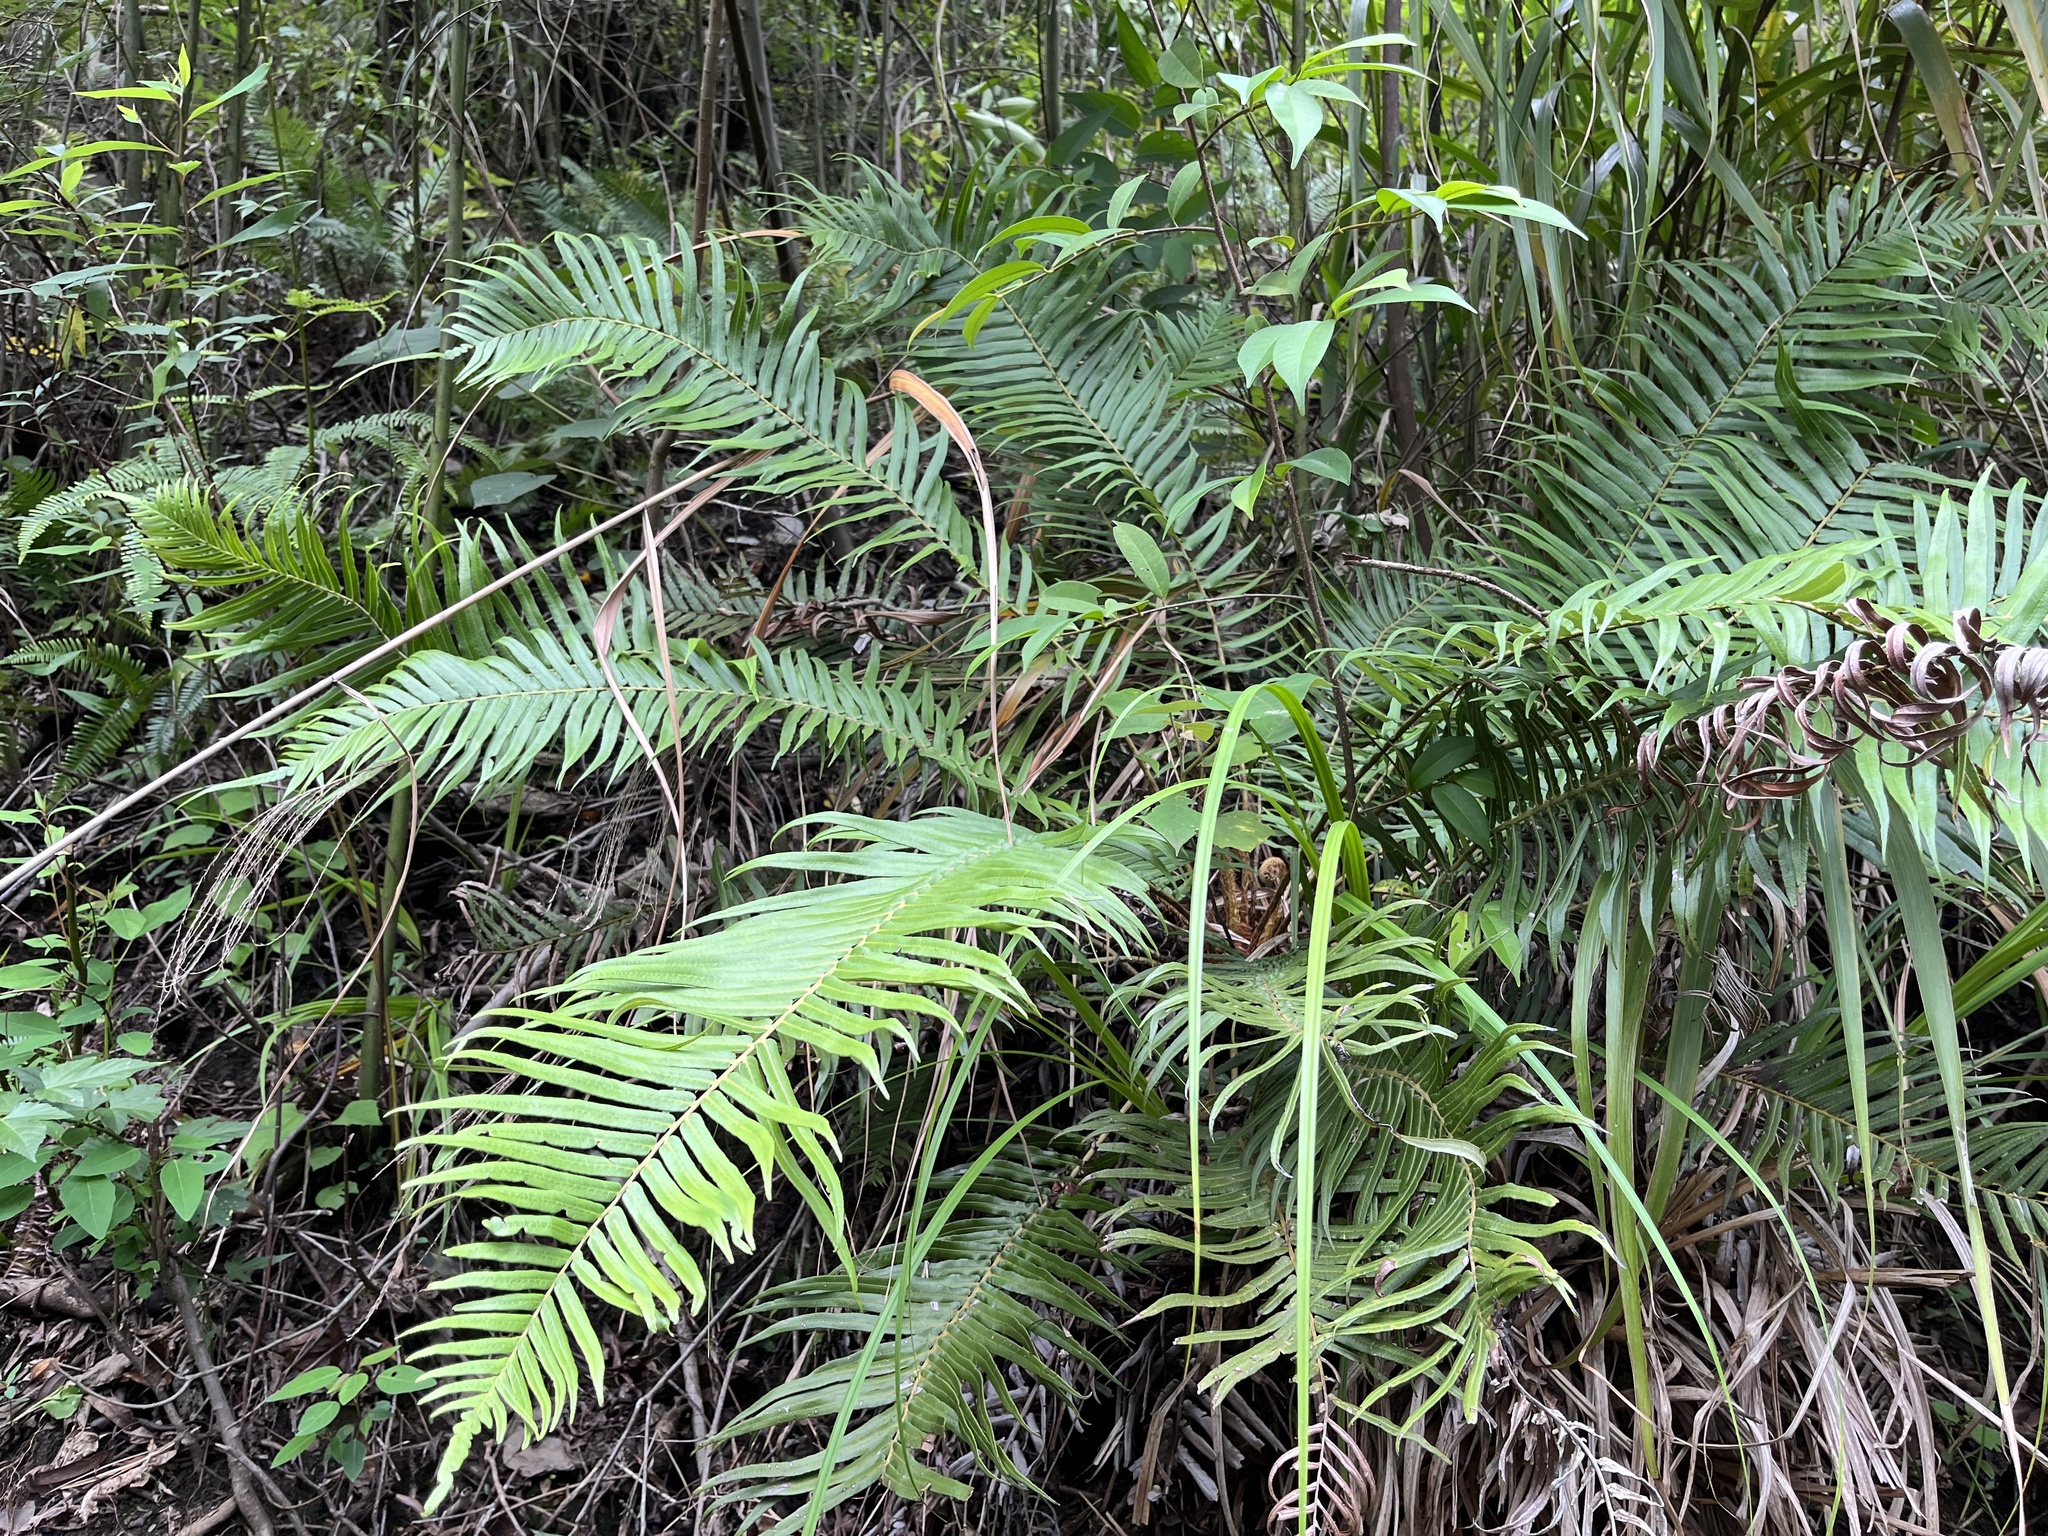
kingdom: Plantae
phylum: Tracheophyta
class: Polypodiopsida
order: Polypodiales
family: Blechnaceae
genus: Brainea
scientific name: Brainea insignis
